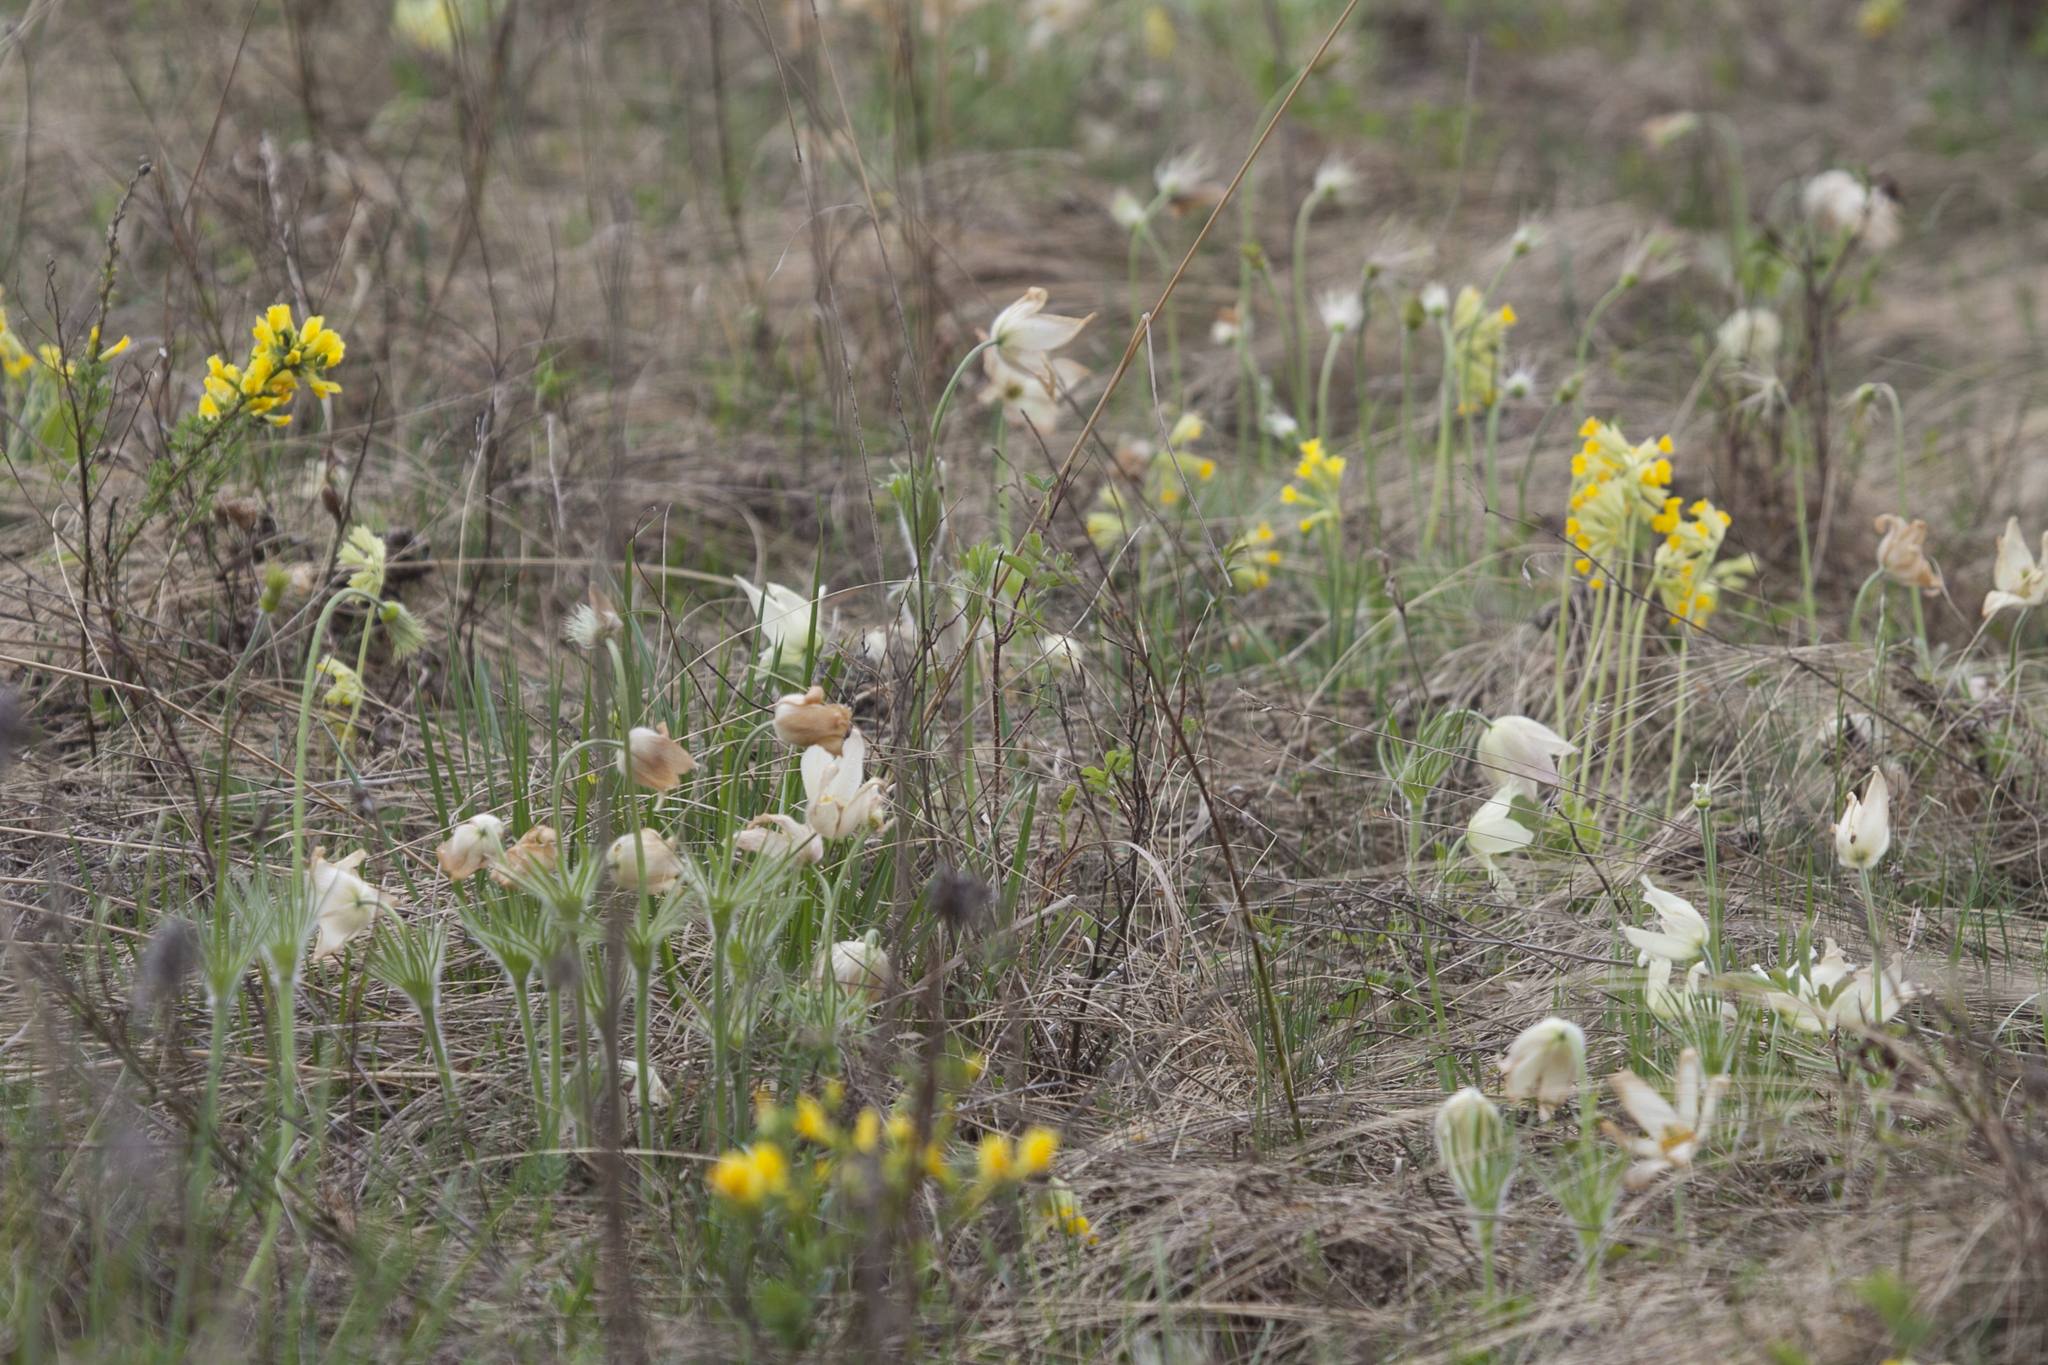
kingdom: Plantae
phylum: Tracheophyta
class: Magnoliopsida
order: Ranunculales
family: Ranunculaceae
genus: Pulsatilla
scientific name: Pulsatilla patens
